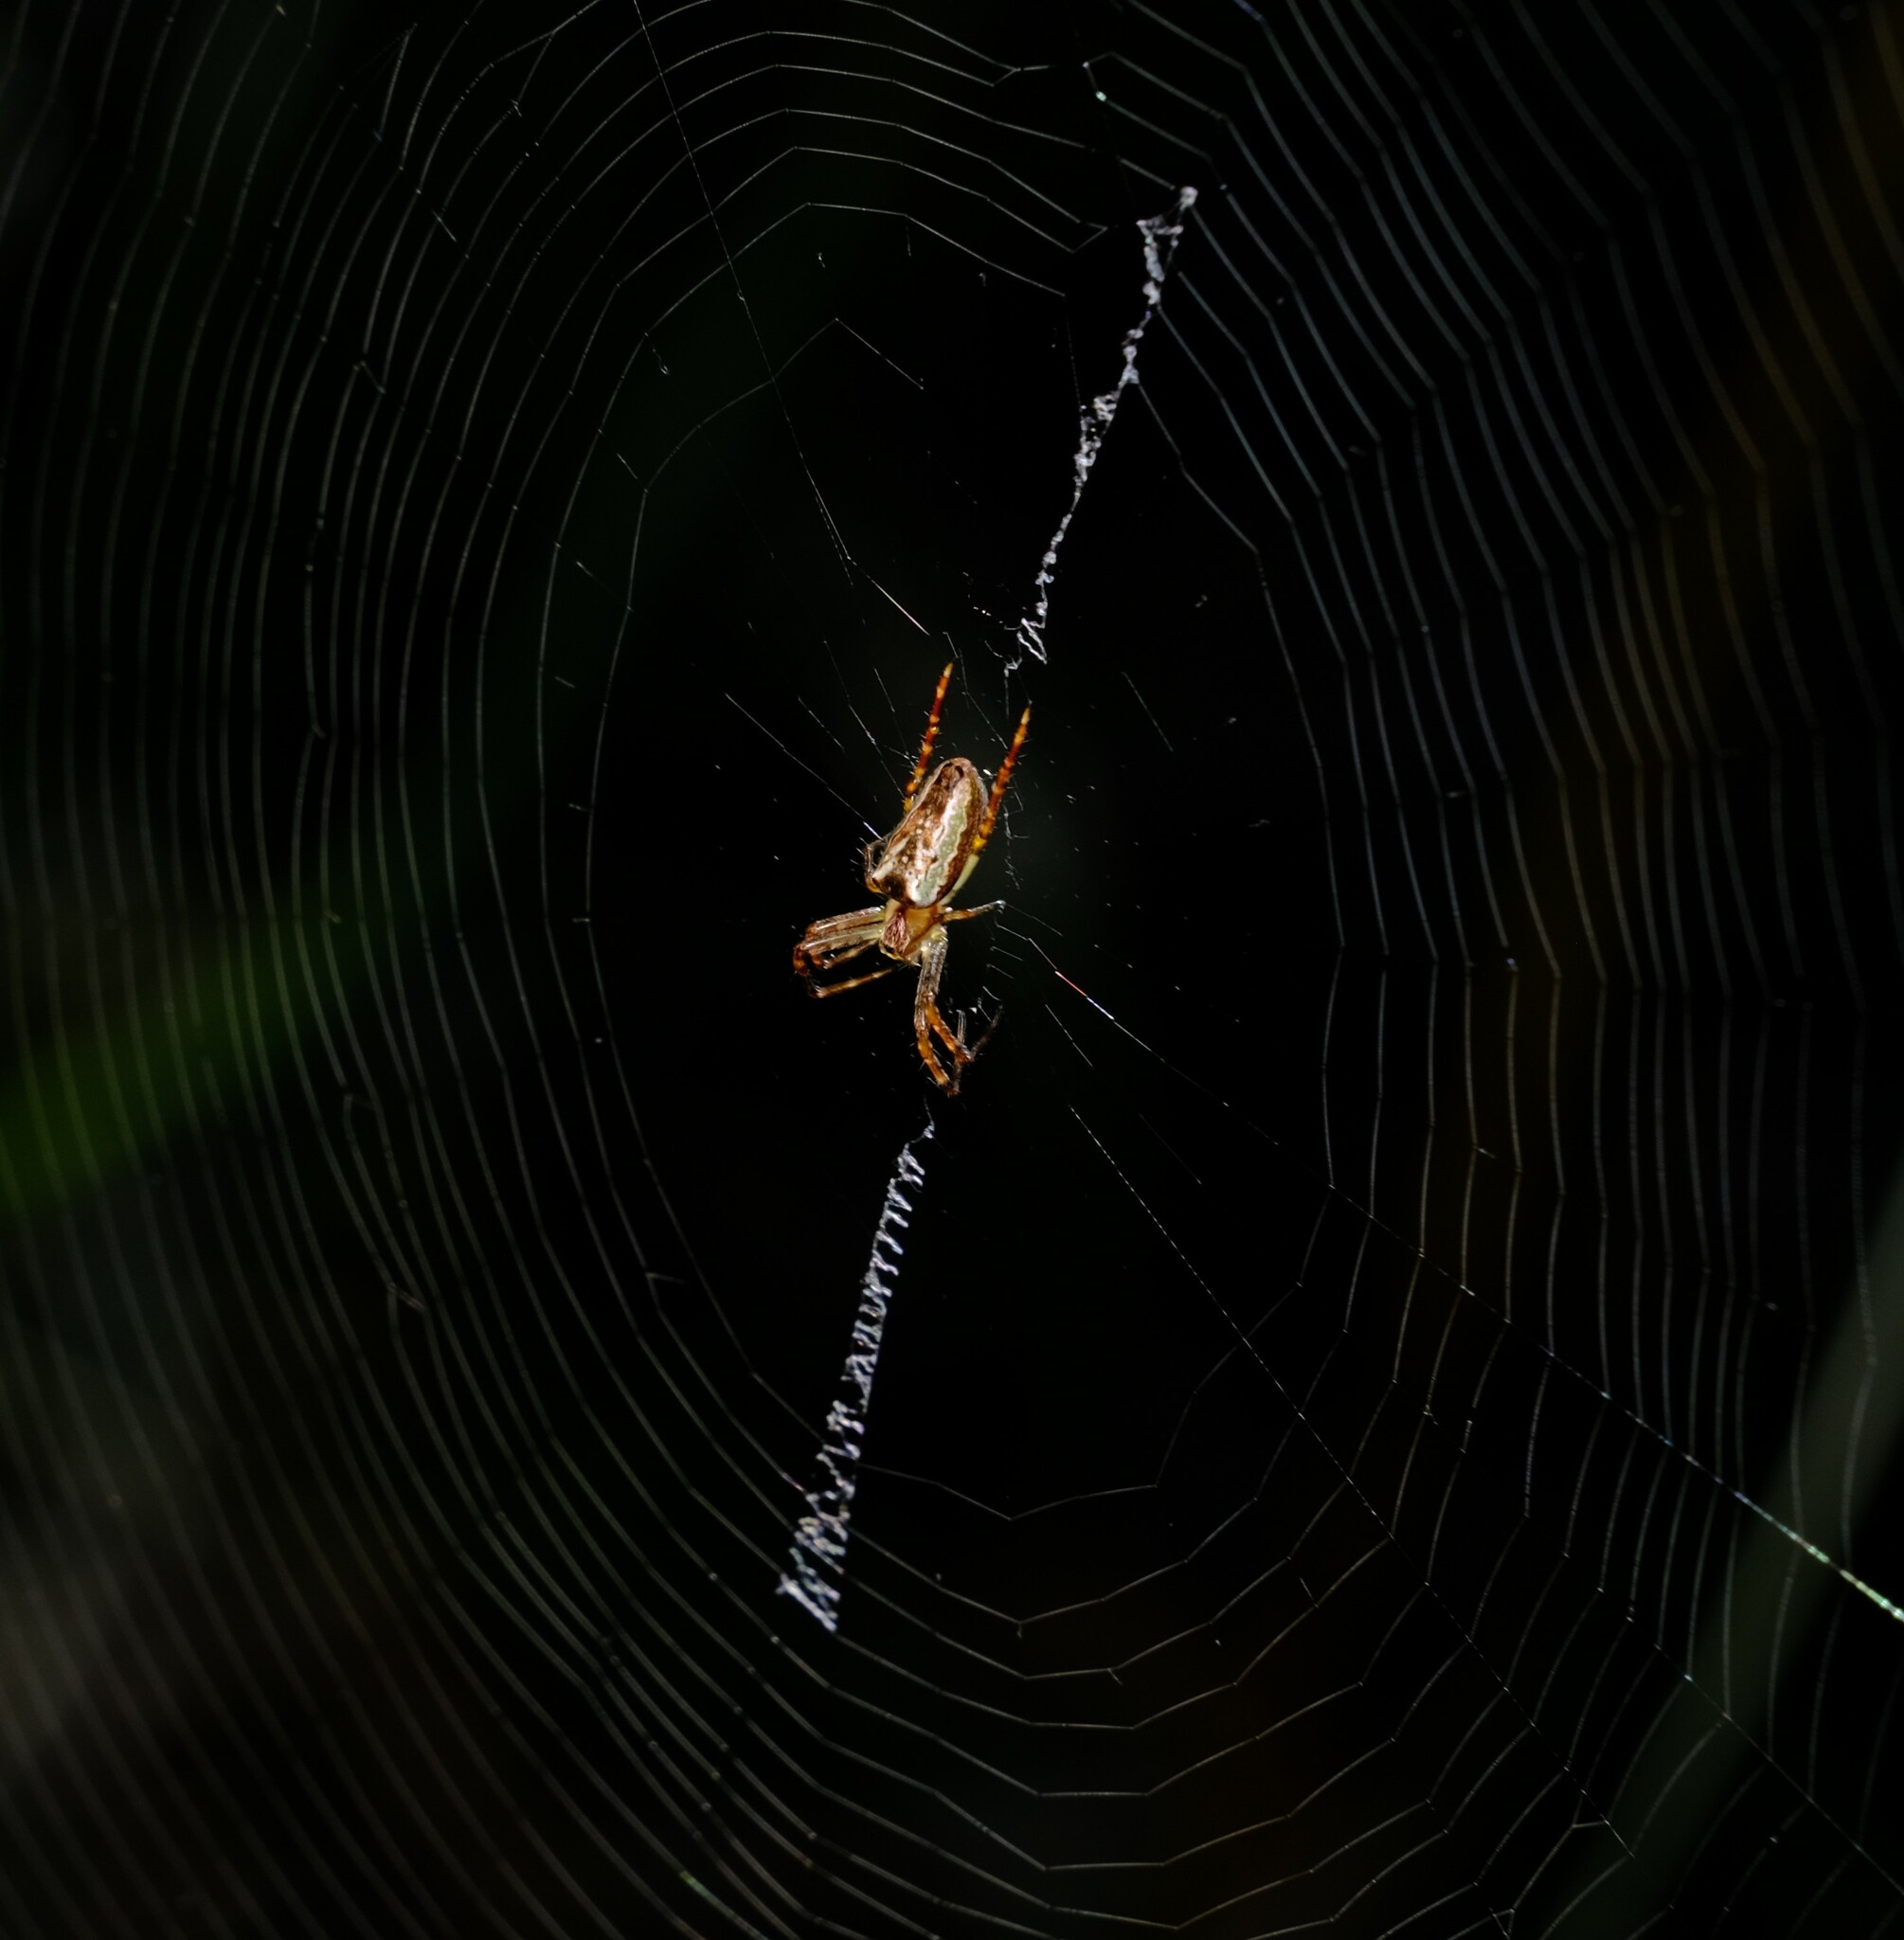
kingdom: Animalia
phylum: Arthropoda
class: Arachnida
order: Araneae
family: Araneidae
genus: Plebs
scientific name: Plebs bradleyi
